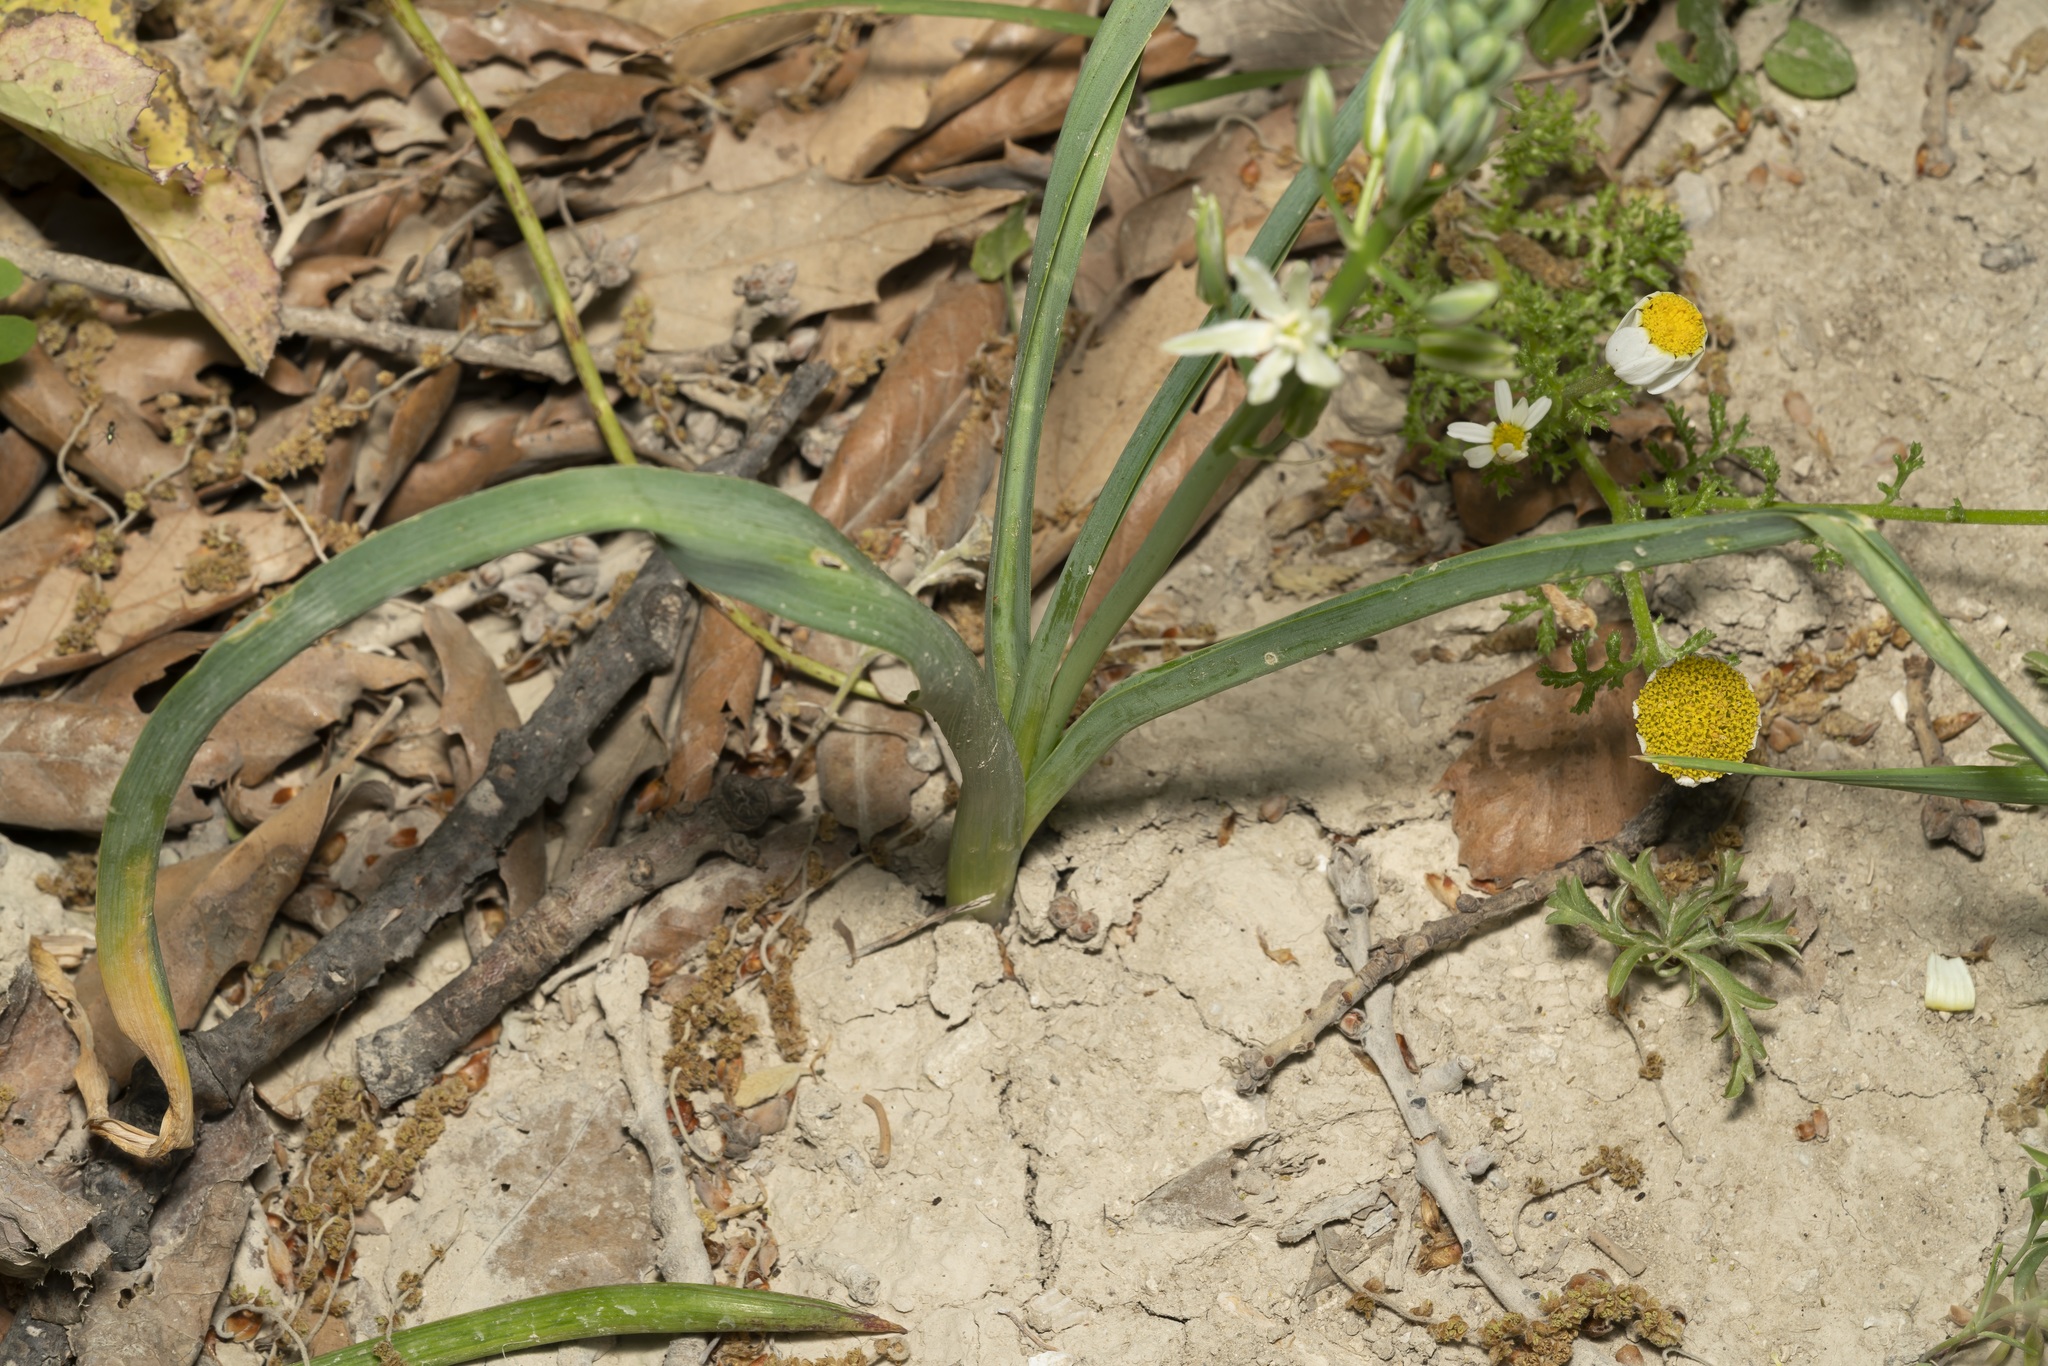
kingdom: Plantae
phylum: Tracheophyta
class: Liliopsida
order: Asparagales
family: Asparagaceae
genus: Ornithogalum
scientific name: Ornithogalum narbonense
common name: Bath-asparagus
